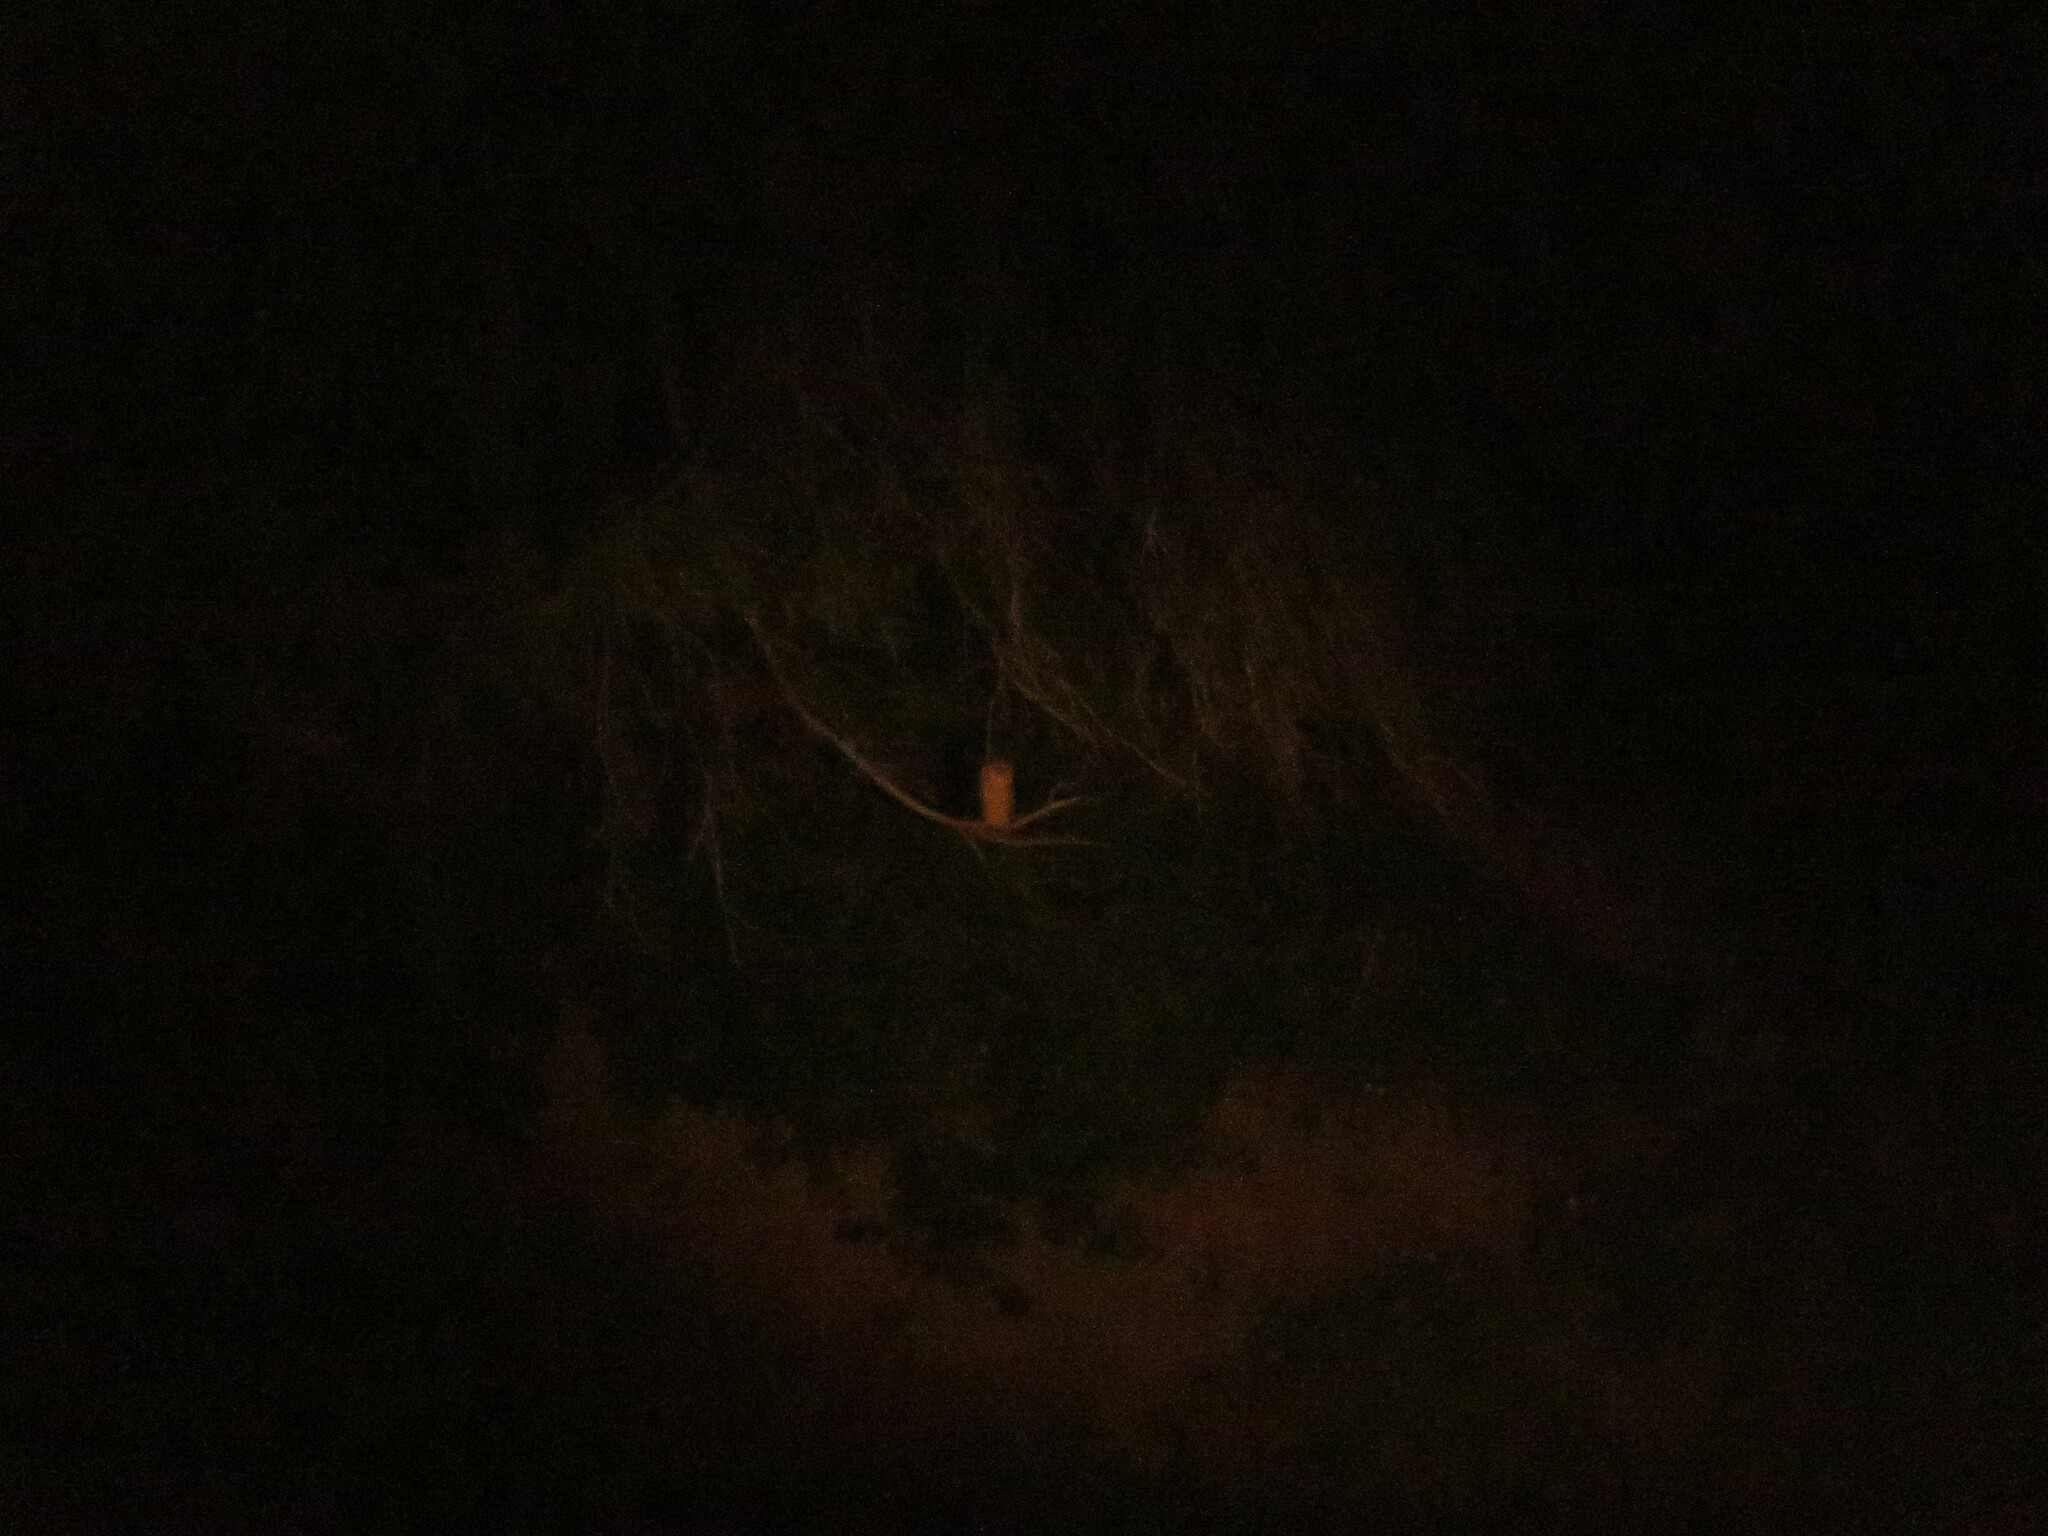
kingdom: Animalia
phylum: Chordata
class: Aves
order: Strigiformes
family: Strigidae
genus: Scotopelia
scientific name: Scotopelia peli
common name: Pel's fishing owl
